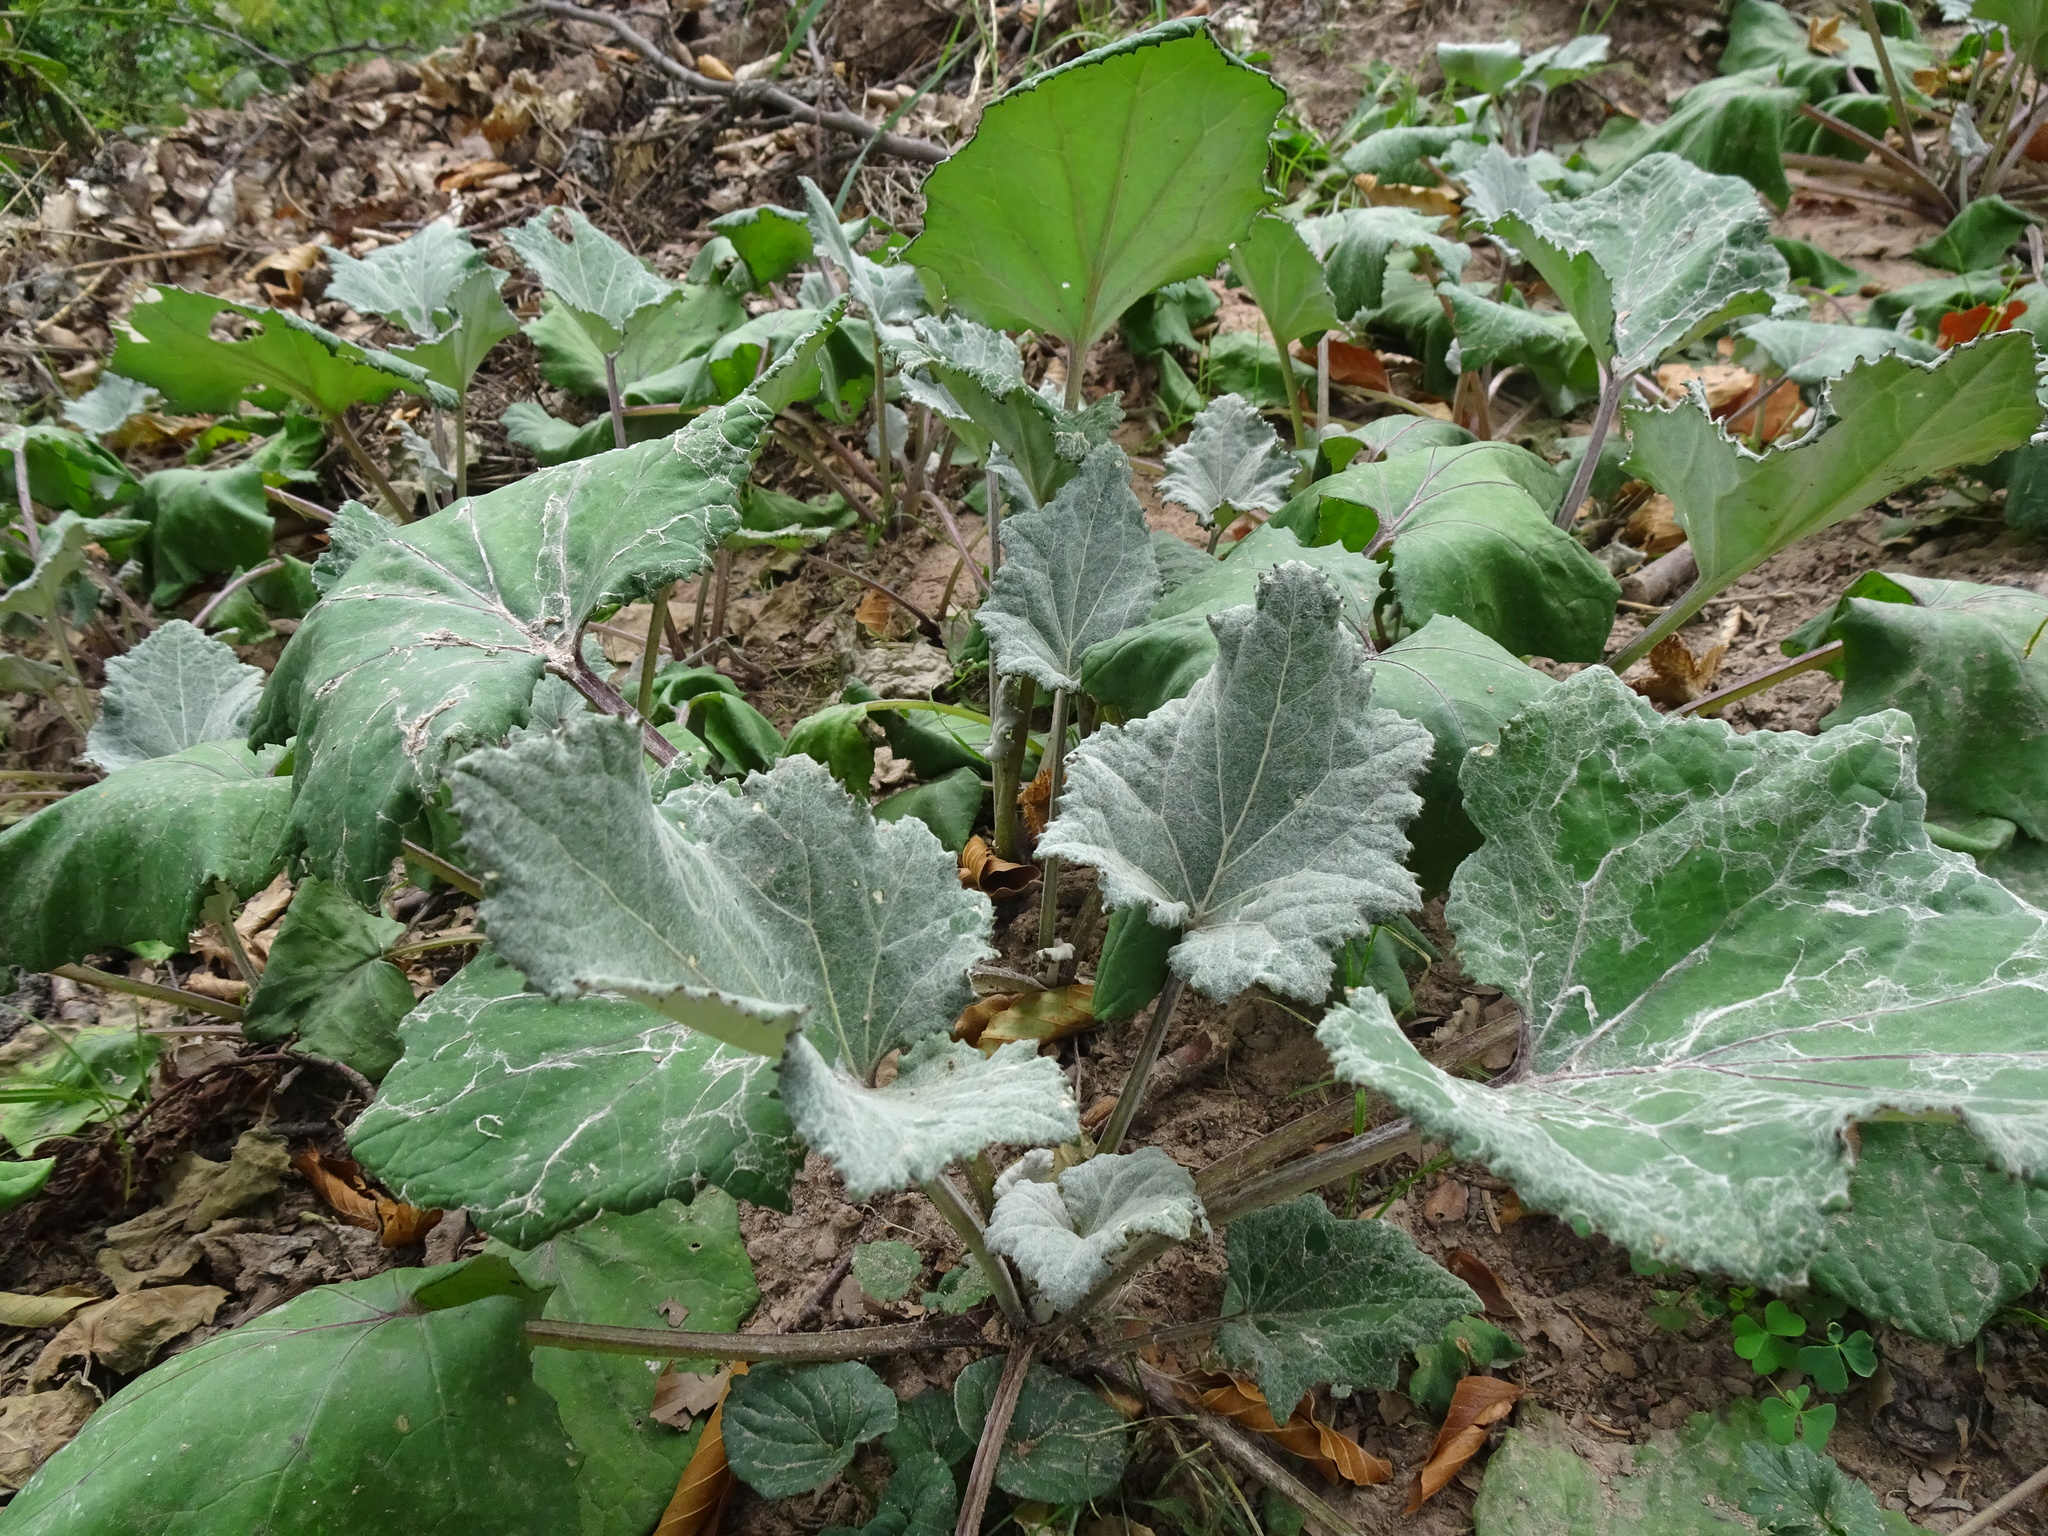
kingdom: Plantae
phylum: Tracheophyta
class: Magnoliopsida
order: Asterales
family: Asteraceae
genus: Tussilago
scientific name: Tussilago farfara
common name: Coltsfoot
